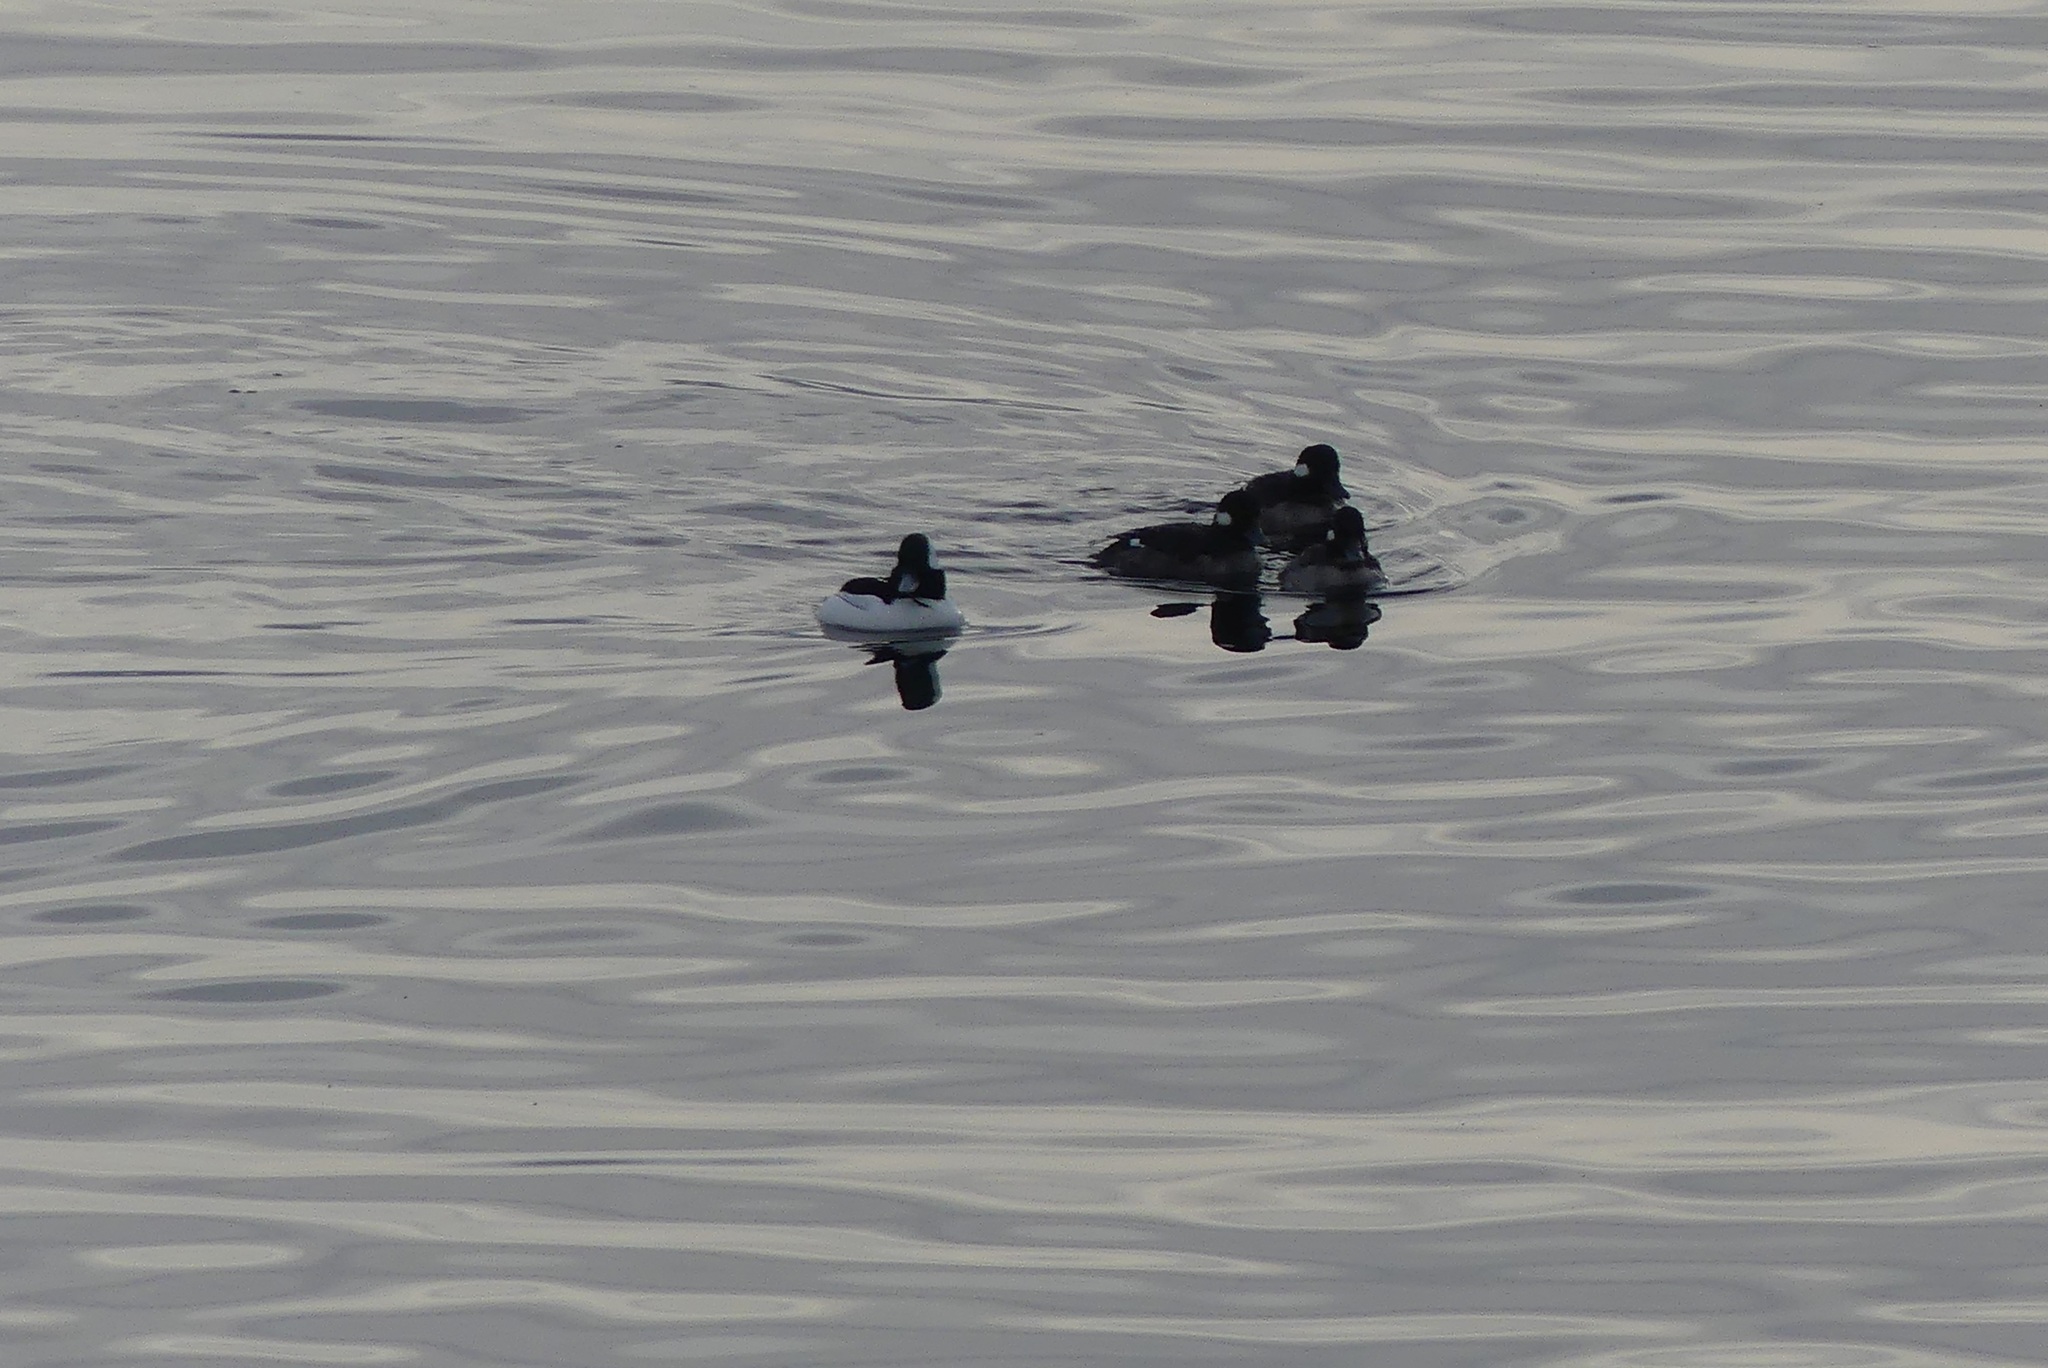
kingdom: Animalia
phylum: Chordata
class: Aves
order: Anseriformes
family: Anatidae
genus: Bucephala
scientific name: Bucephala albeola
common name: Bufflehead
